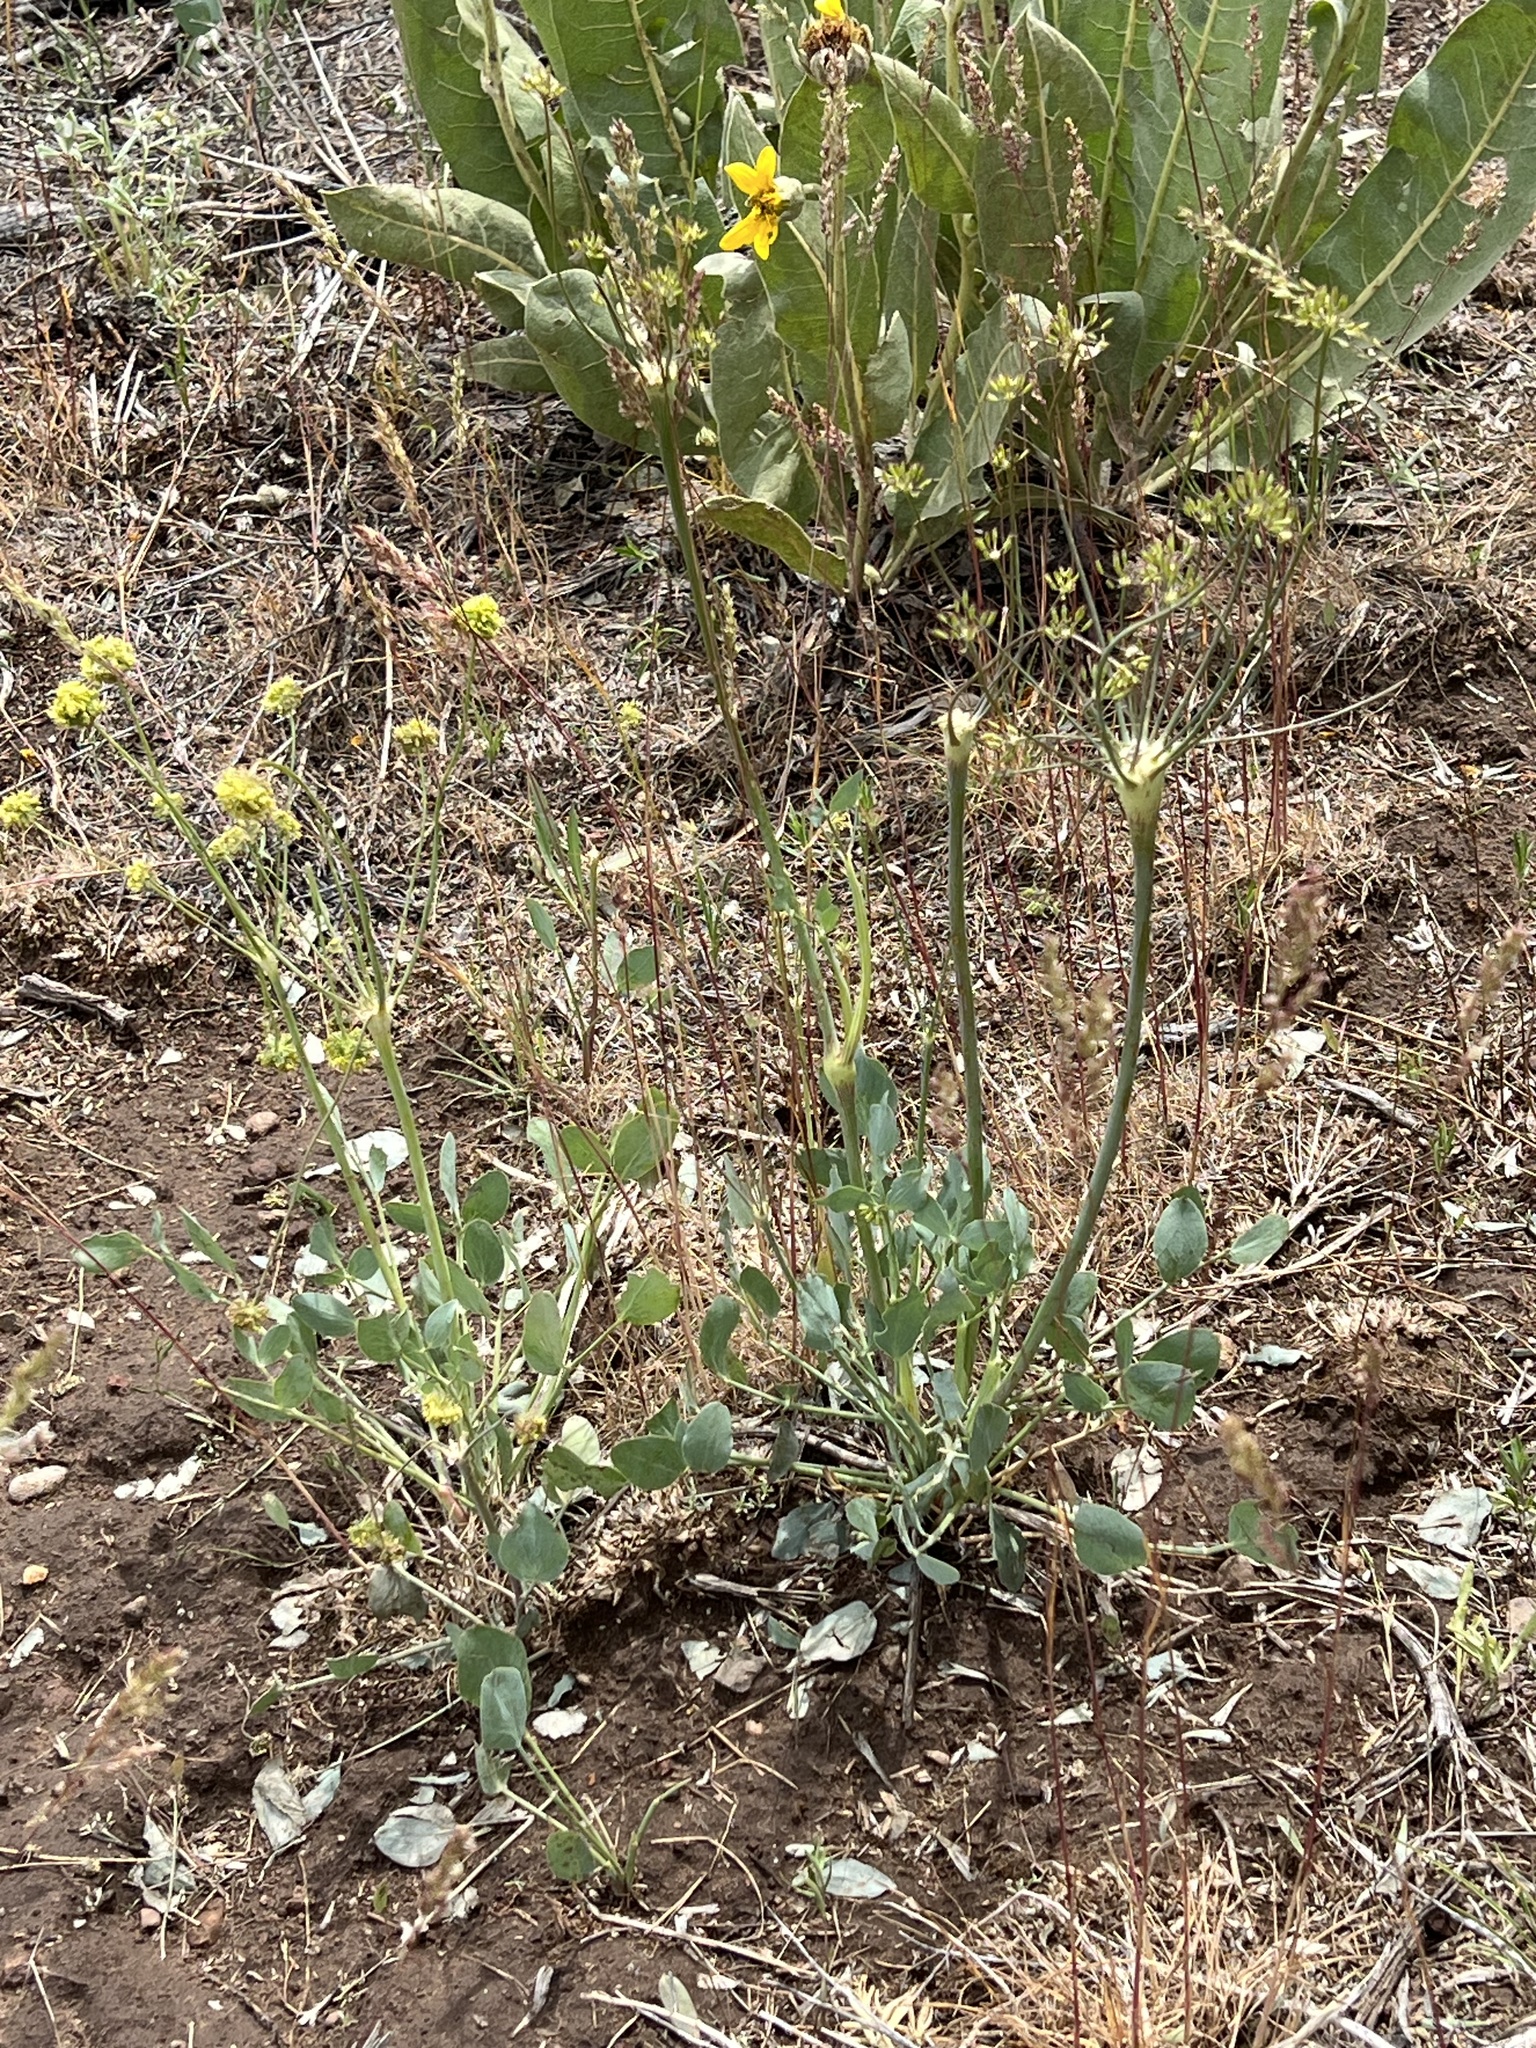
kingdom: Plantae
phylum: Tracheophyta
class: Magnoliopsida
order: Apiales
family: Apiaceae
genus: Lomatium
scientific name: Lomatium nudicaule
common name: Pestle lomatium
